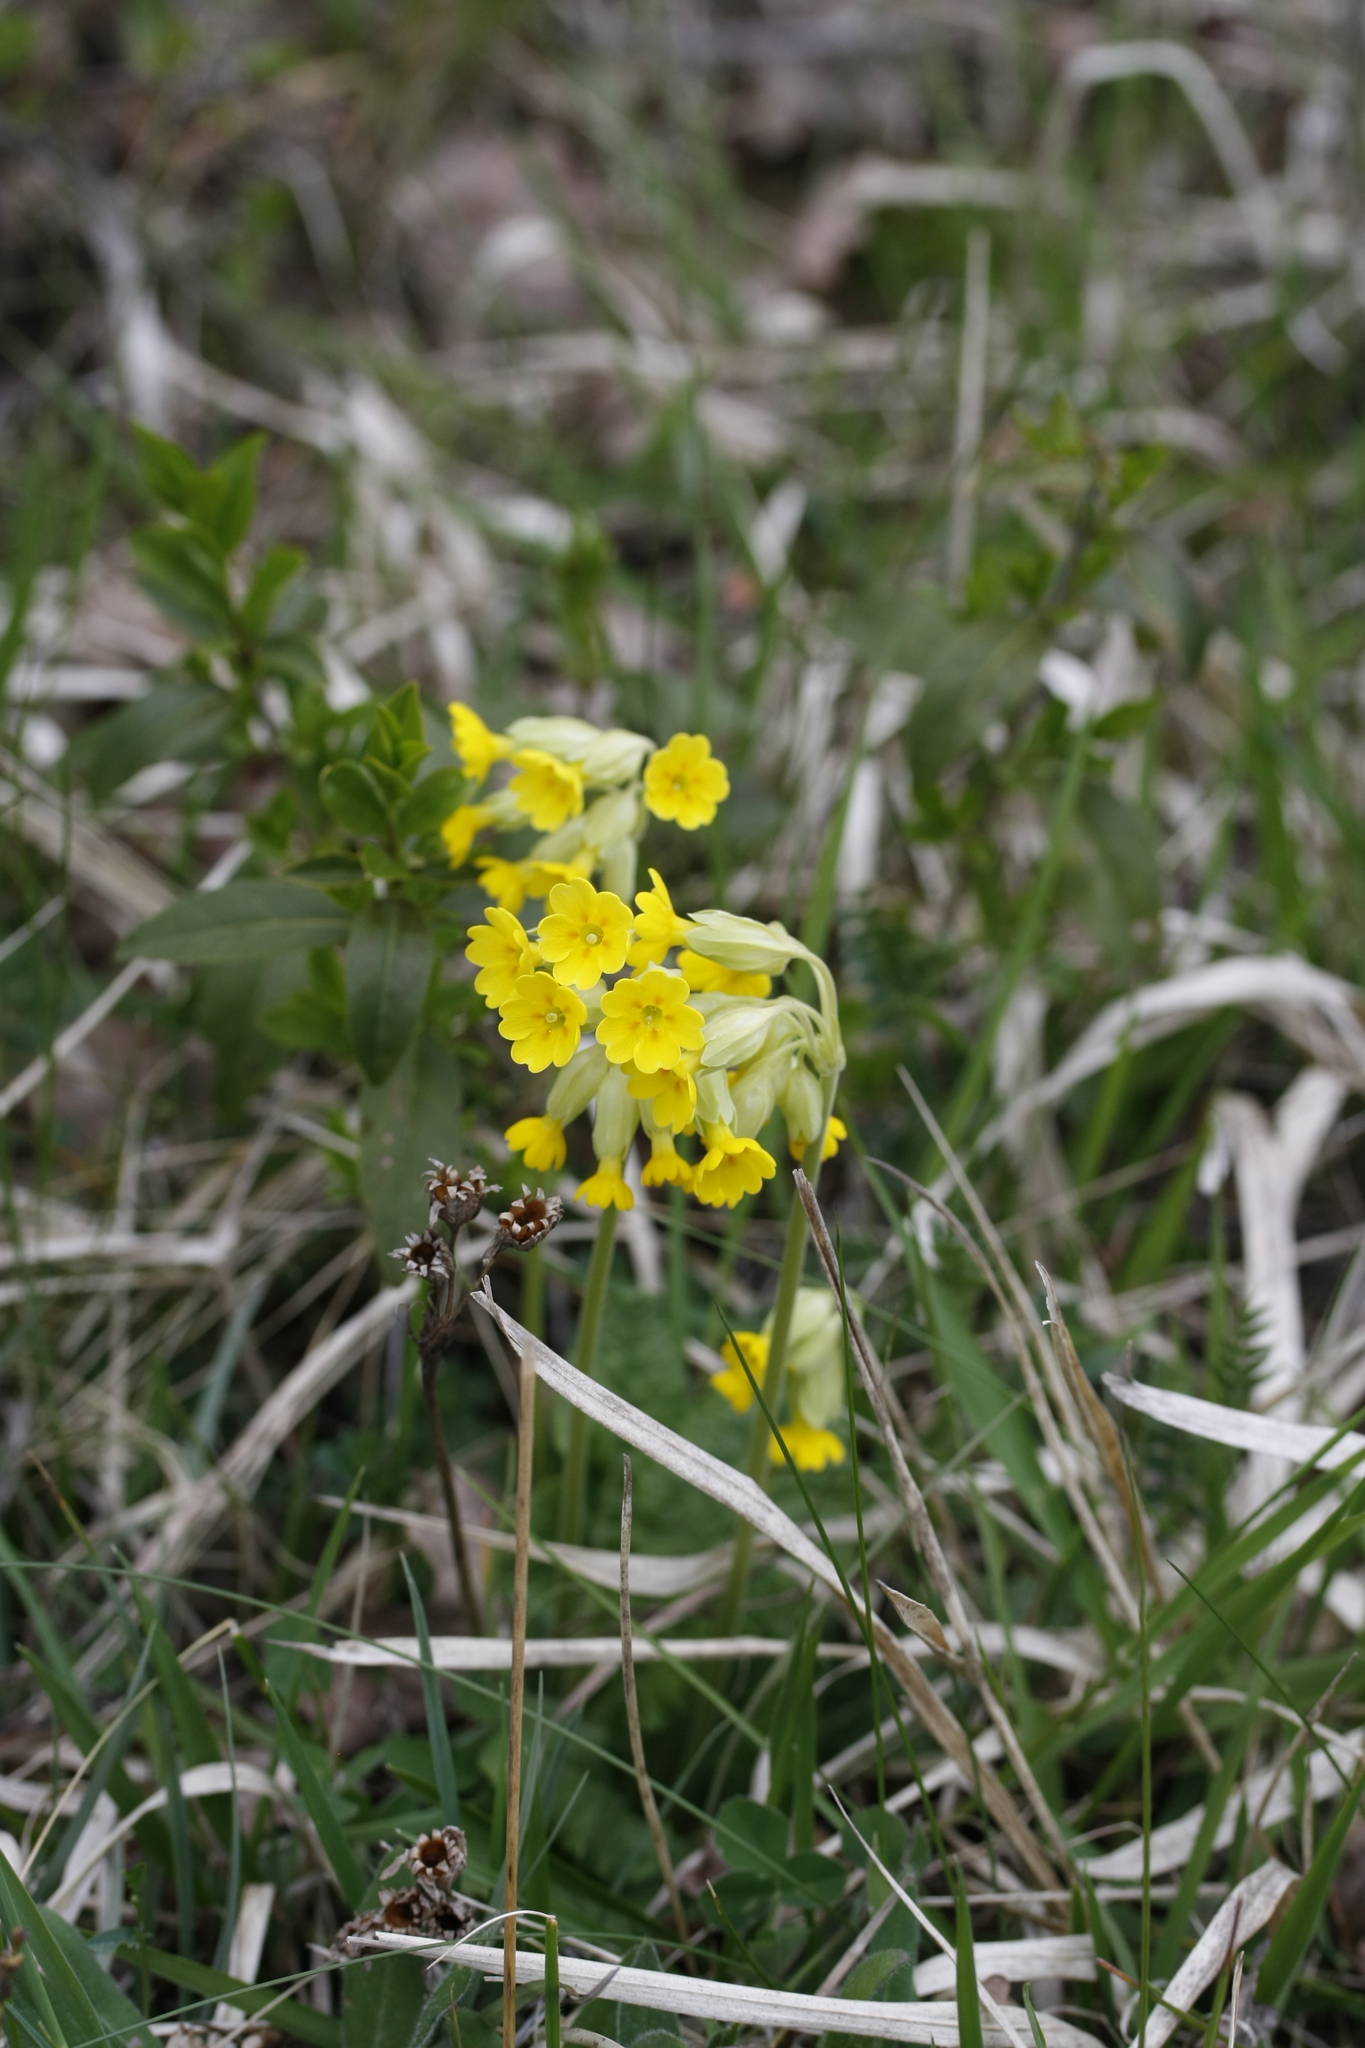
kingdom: Plantae
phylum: Tracheophyta
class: Magnoliopsida
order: Ericales
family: Primulaceae
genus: Primula
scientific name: Primula veris
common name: Cowslip
